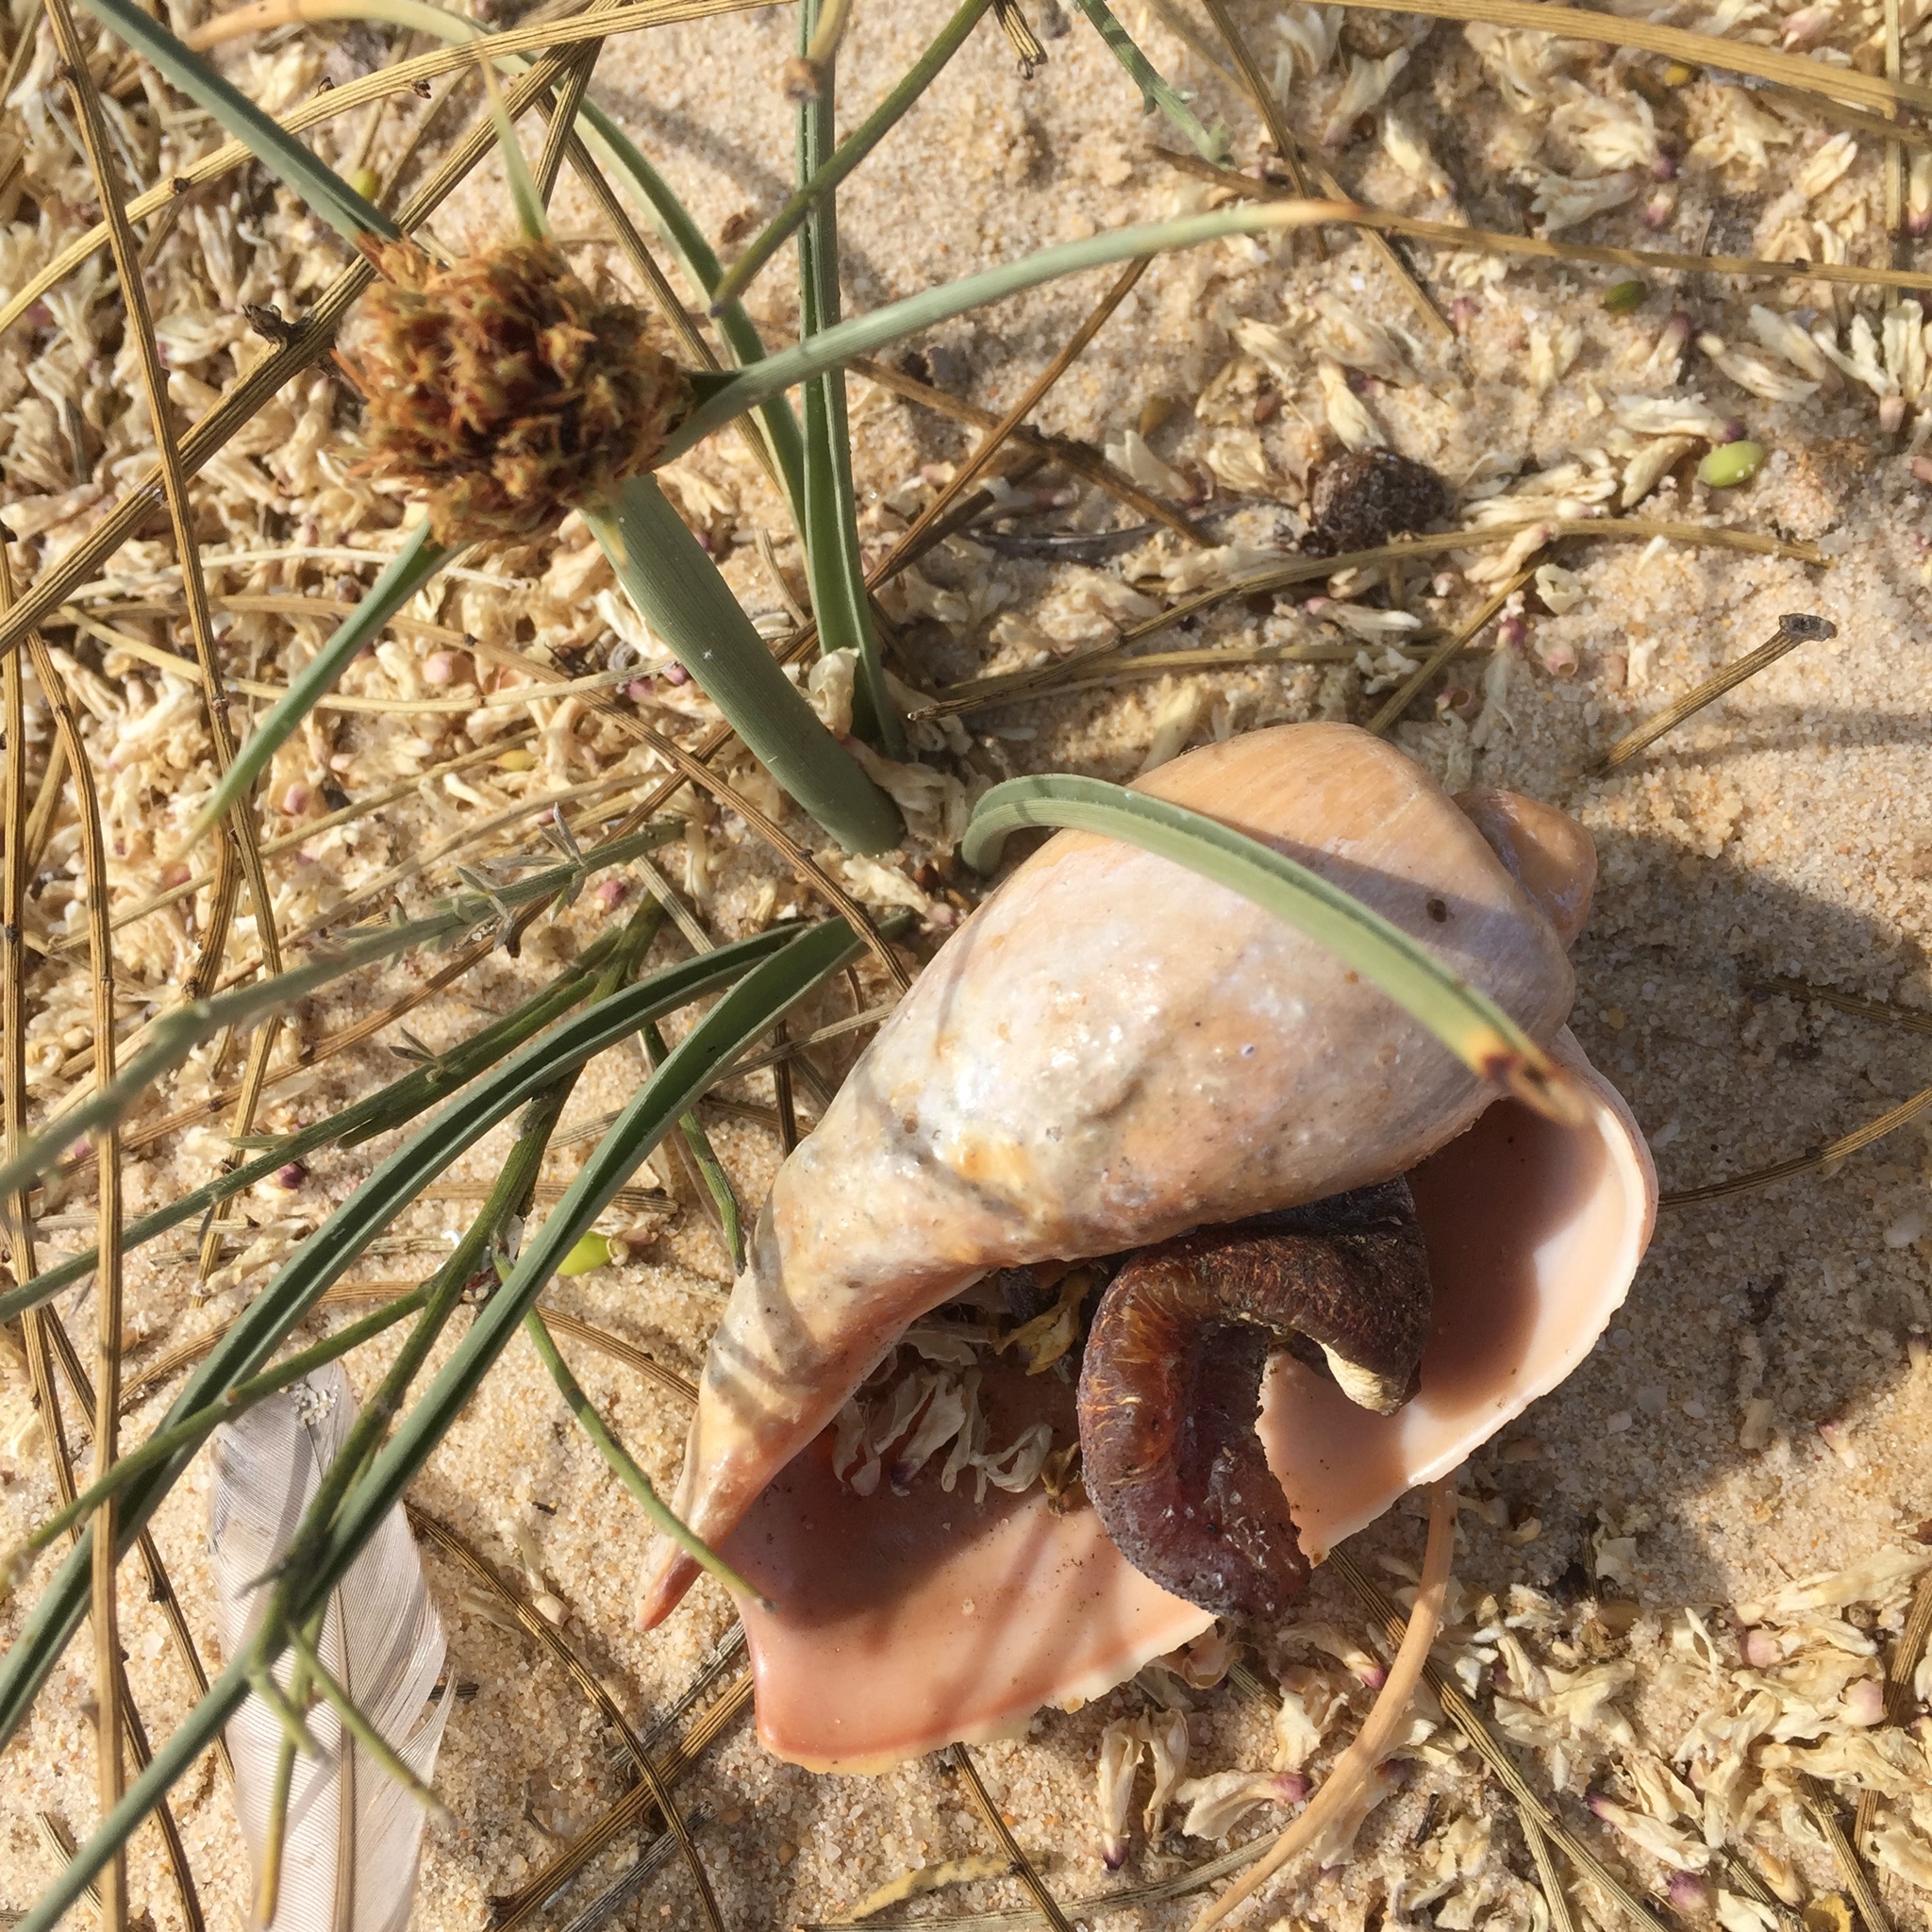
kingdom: Animalia
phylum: Mollusca
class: Gastropoda
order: Neogastropoda
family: Volutidae
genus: Cymbium
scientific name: Cymbium olla
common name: Algarve volute
